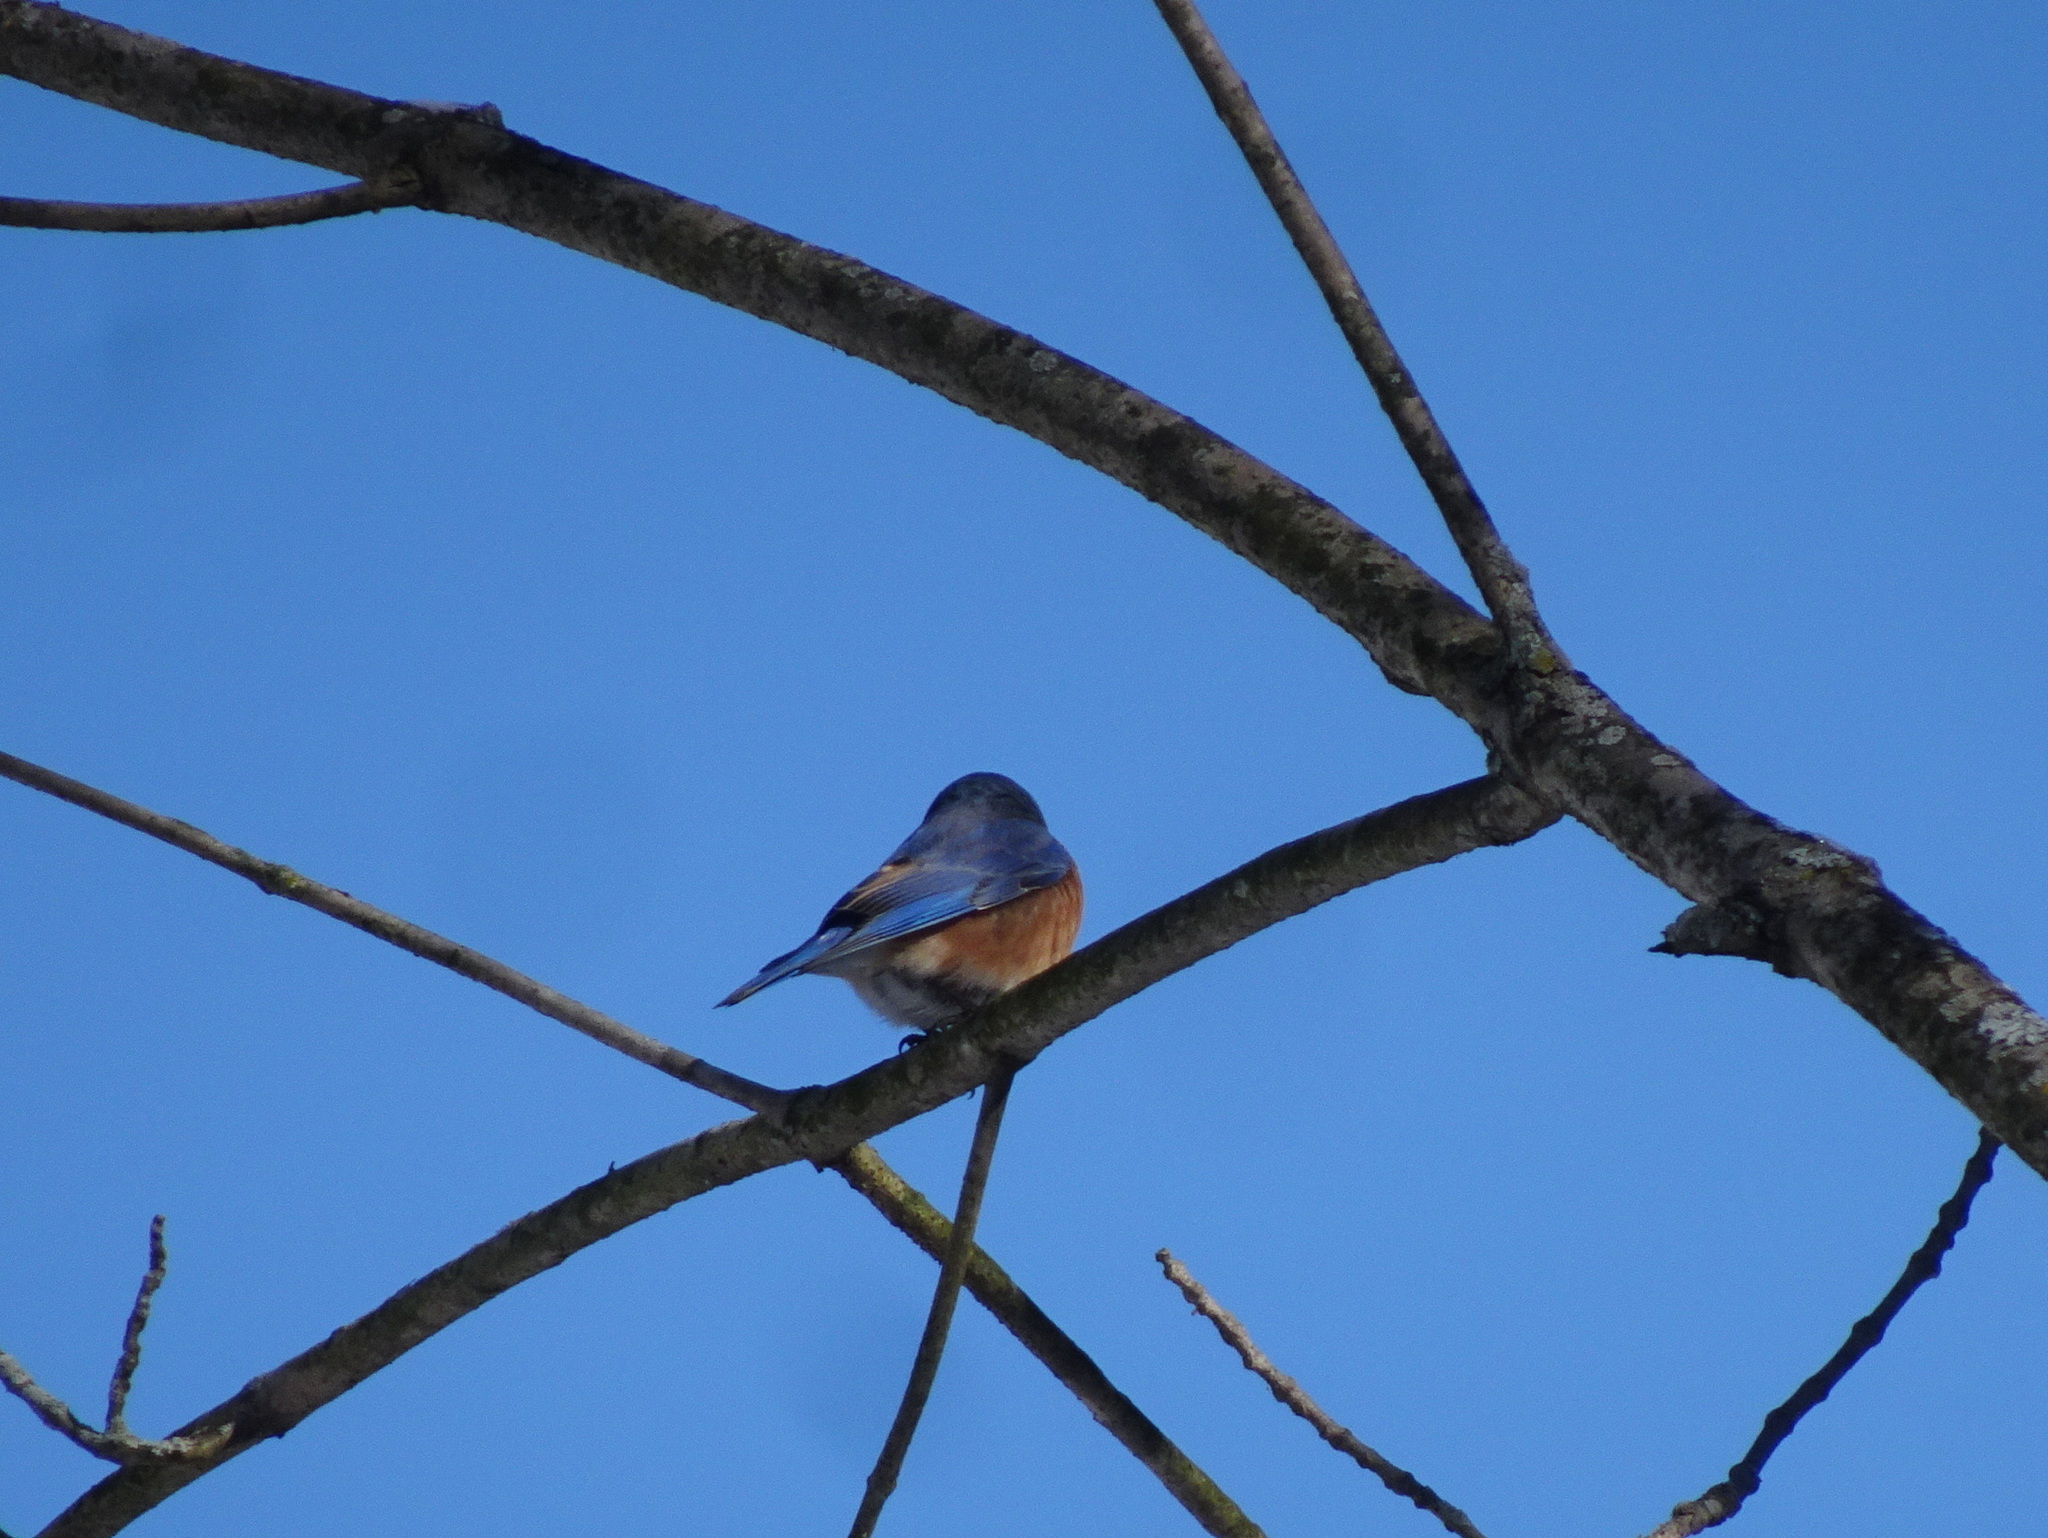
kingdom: Animalia
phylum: Chordata
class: Aves
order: Passeriformes
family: Turdidae
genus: Sialia
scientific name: Sialia sialis
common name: Eastern bluebird
